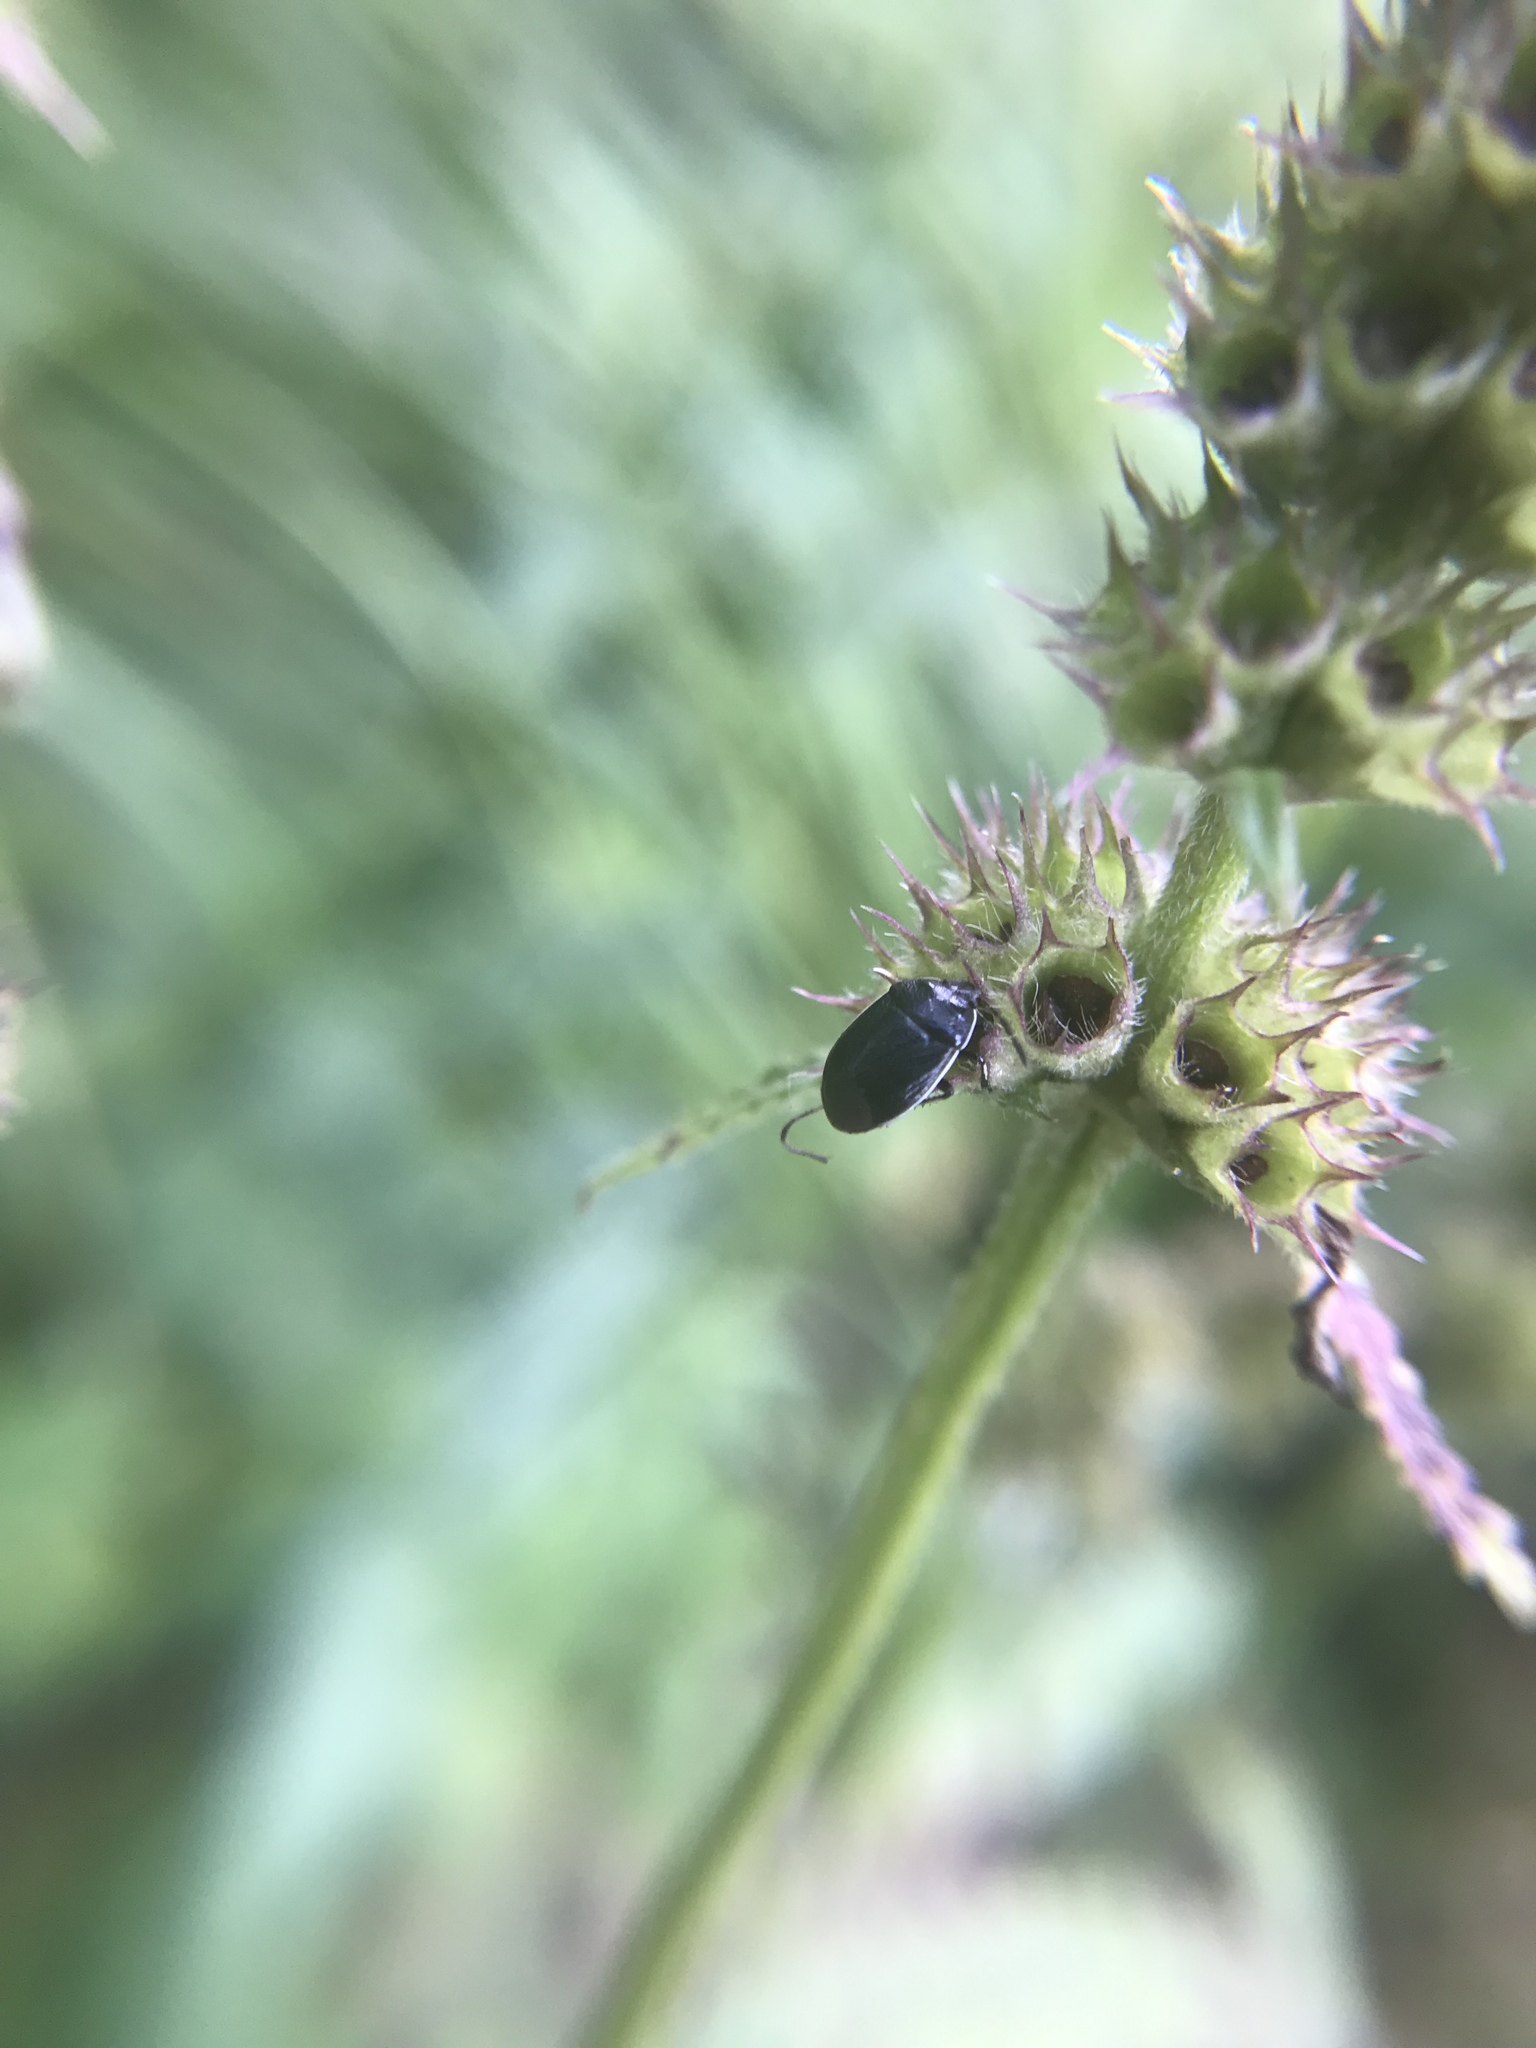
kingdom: Animalia
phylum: Arthropoda
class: Insecta
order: Hemiptera
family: Cydnidae
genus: Sehirus
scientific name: Sehirus cinctus
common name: White-margined burrower bug
